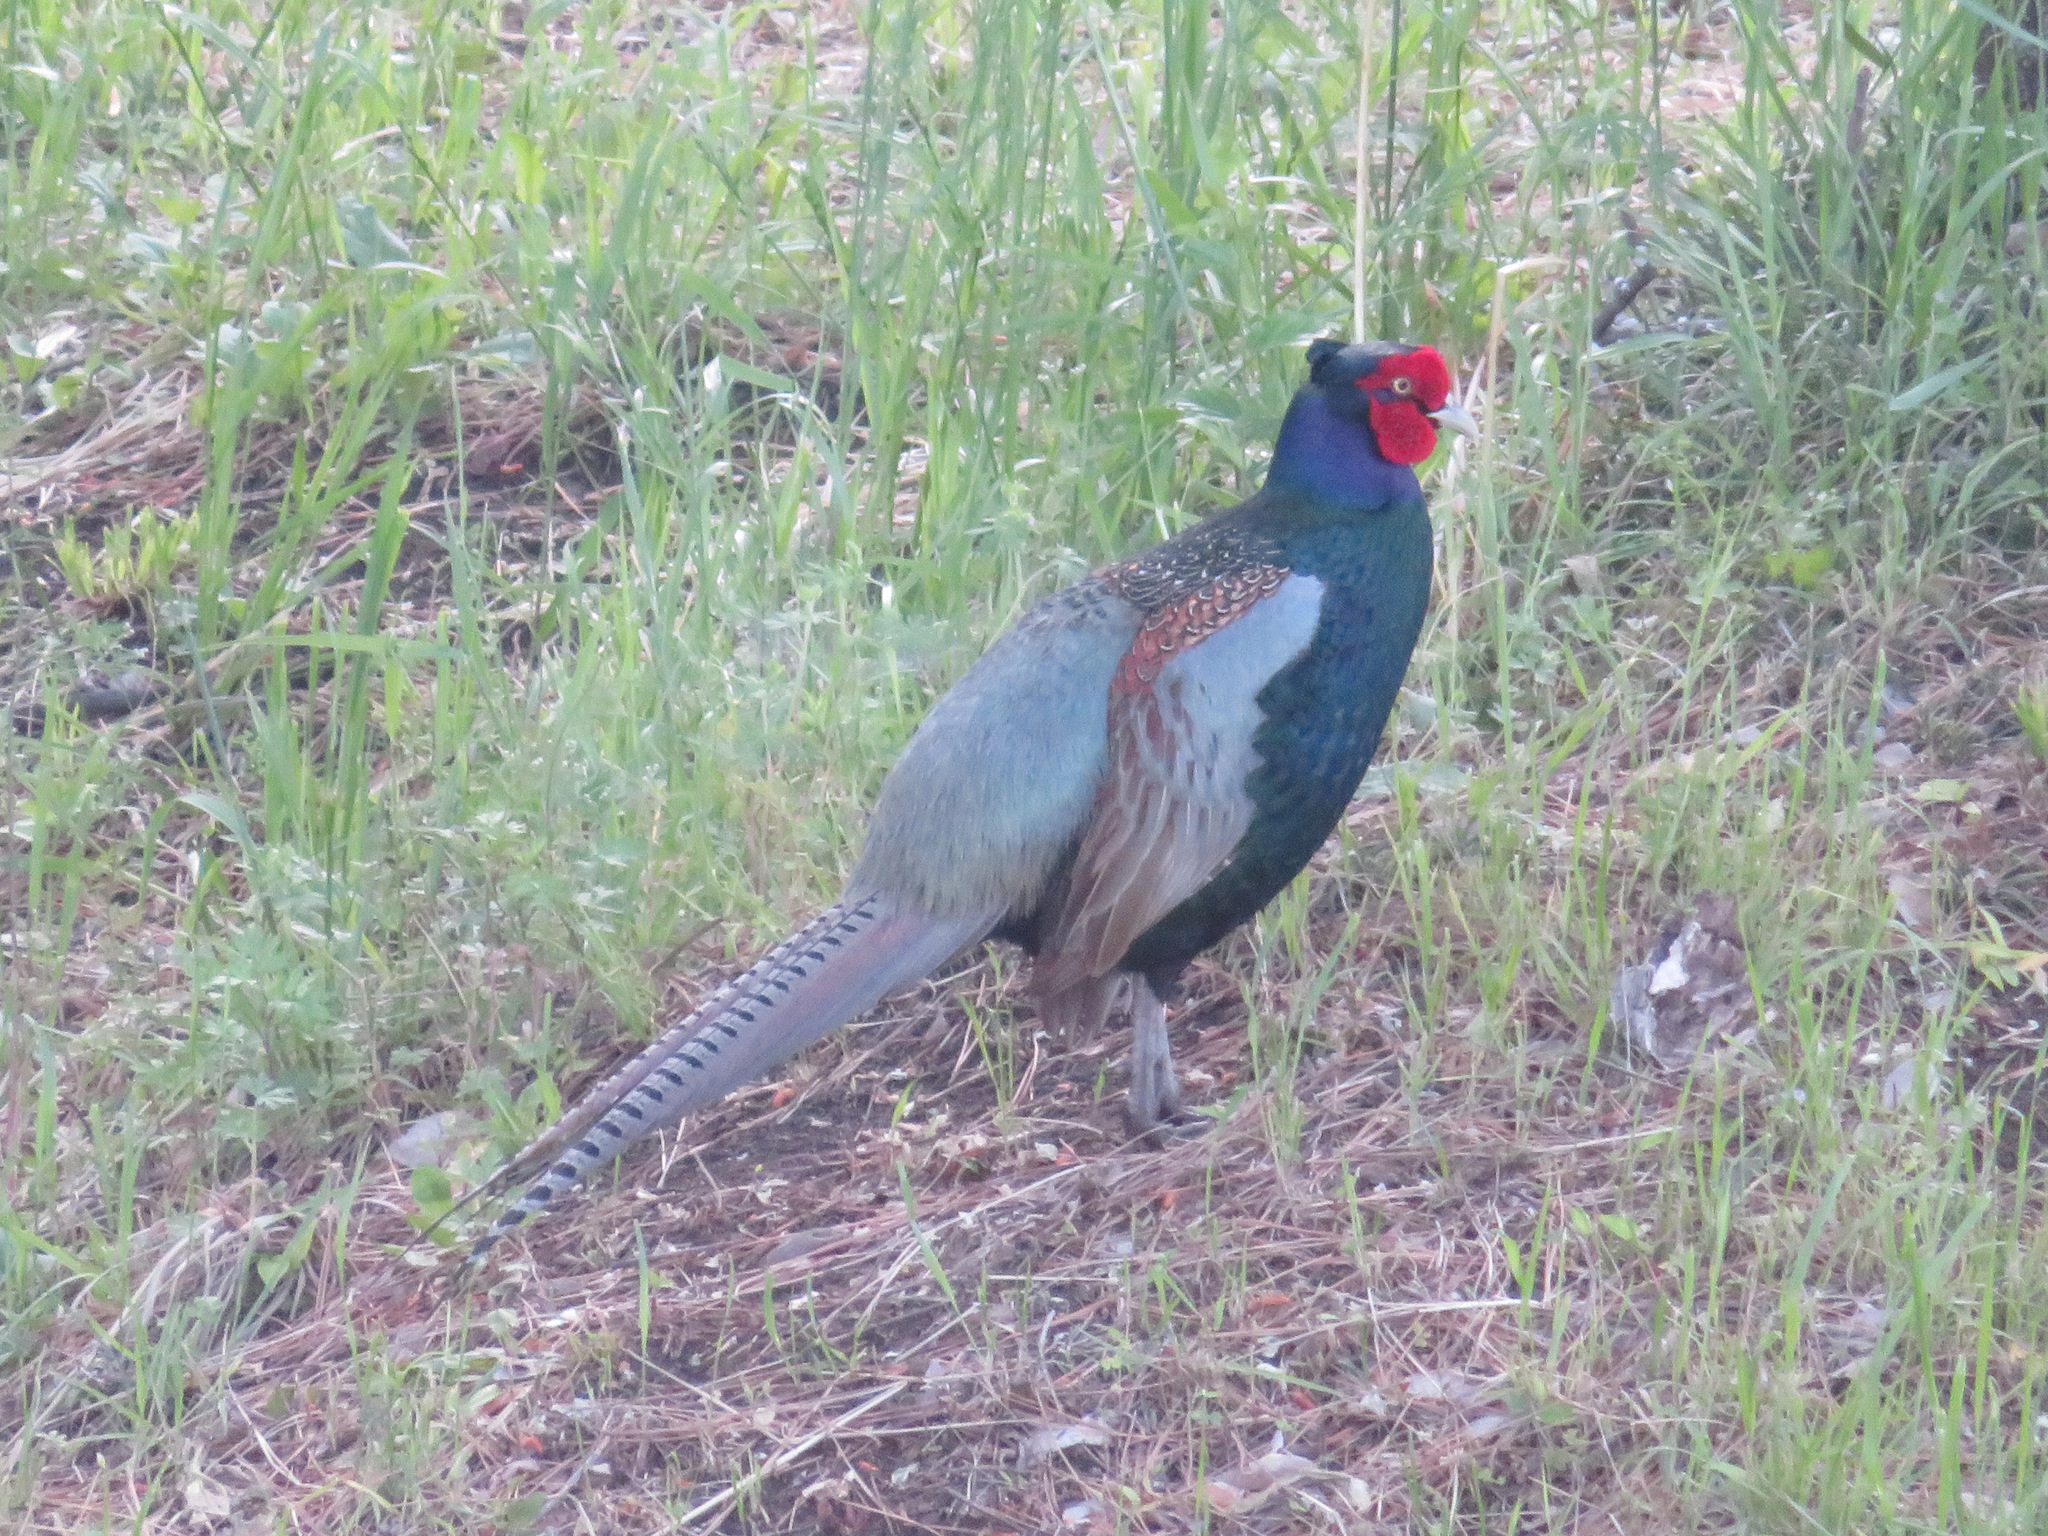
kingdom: Animalia
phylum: Chordata
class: Aves
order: Galliformes
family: Phasianidae
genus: Phasianus
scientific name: Phasianus versicolor
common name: Green pheasant
